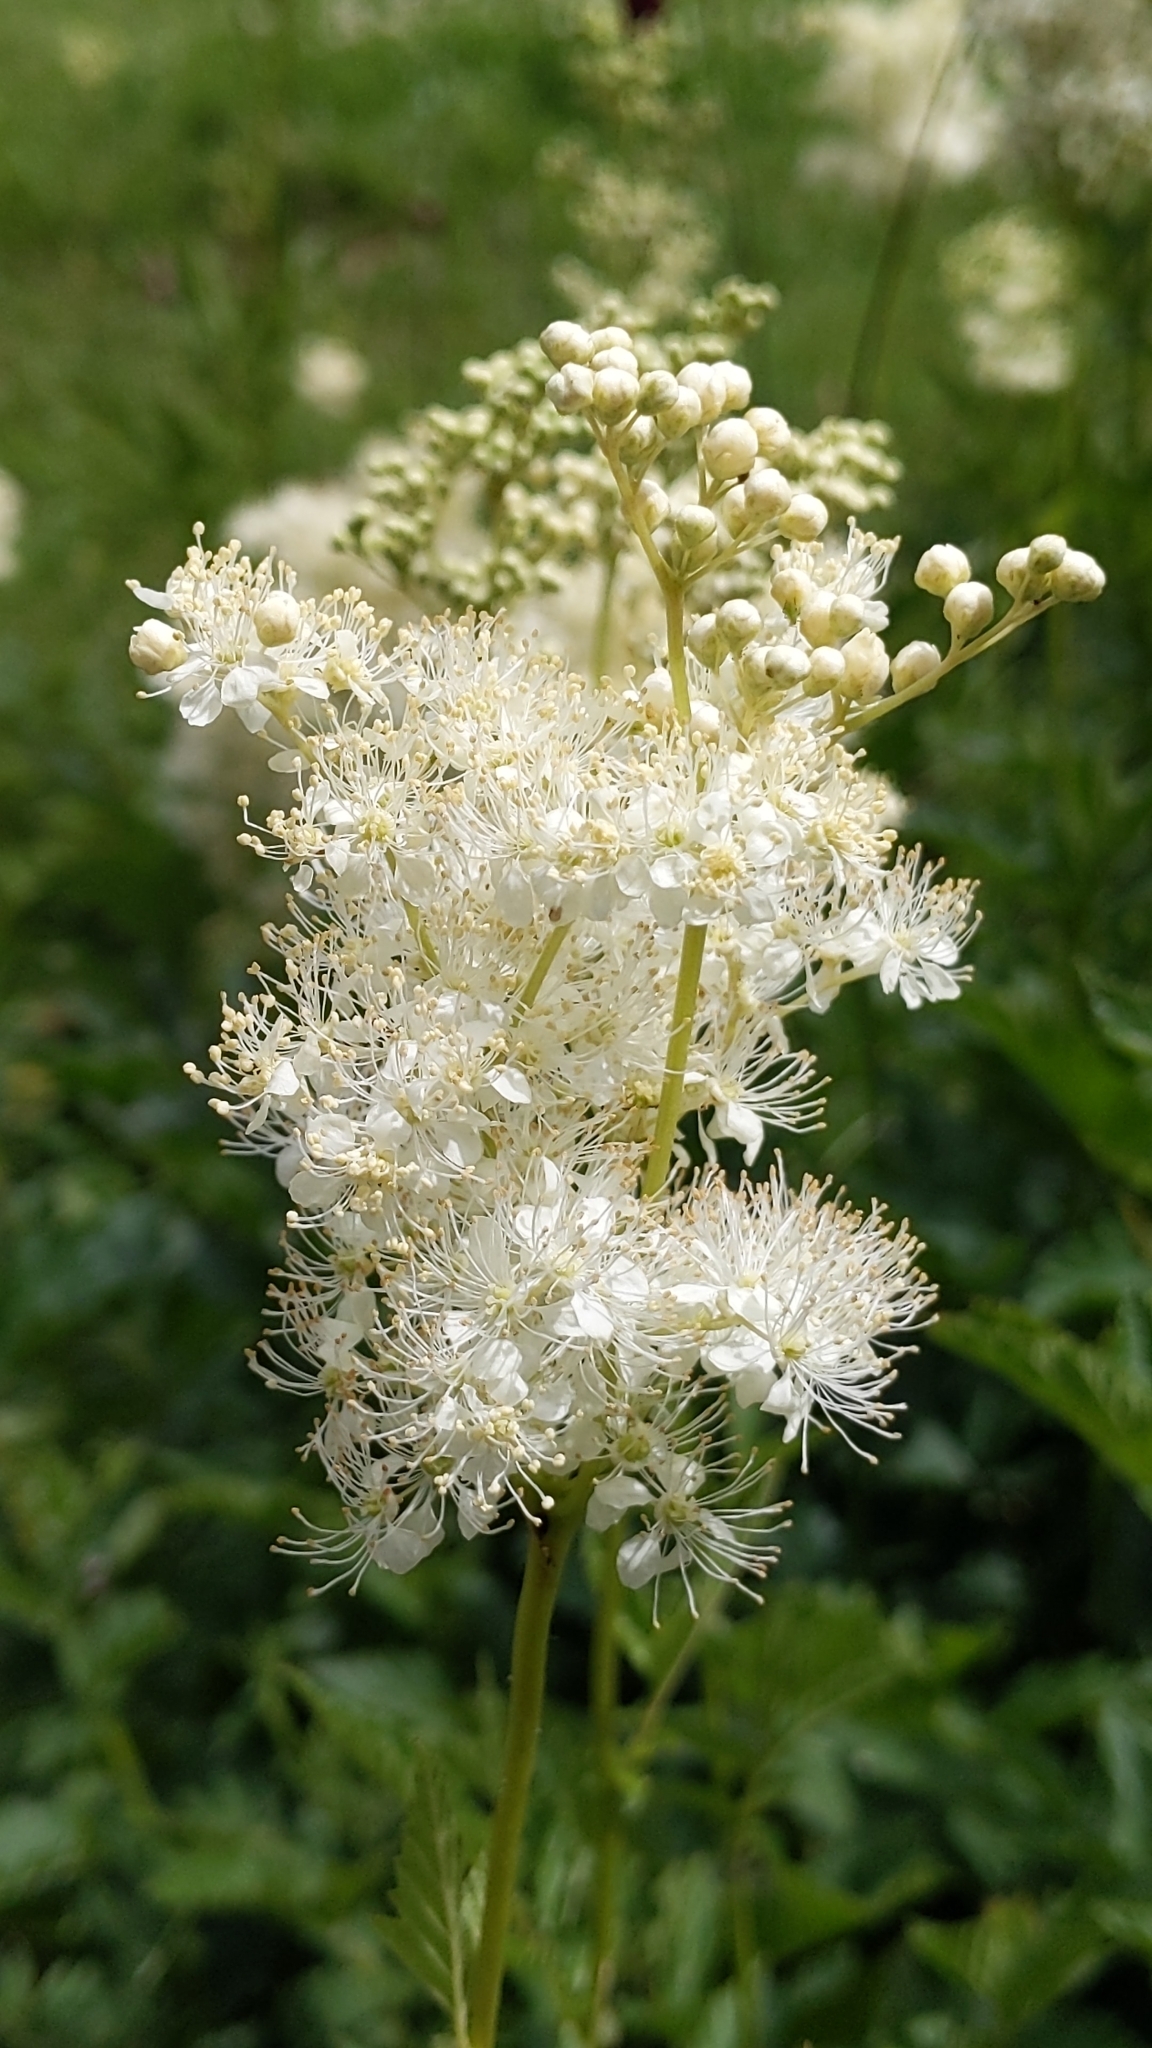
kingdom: Plantae
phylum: Tracheophyta
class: Magnoliopsida
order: Rosales
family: Rosaceae
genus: Filipendula
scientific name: Filipendula ulmaria
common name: Meadowsweet
